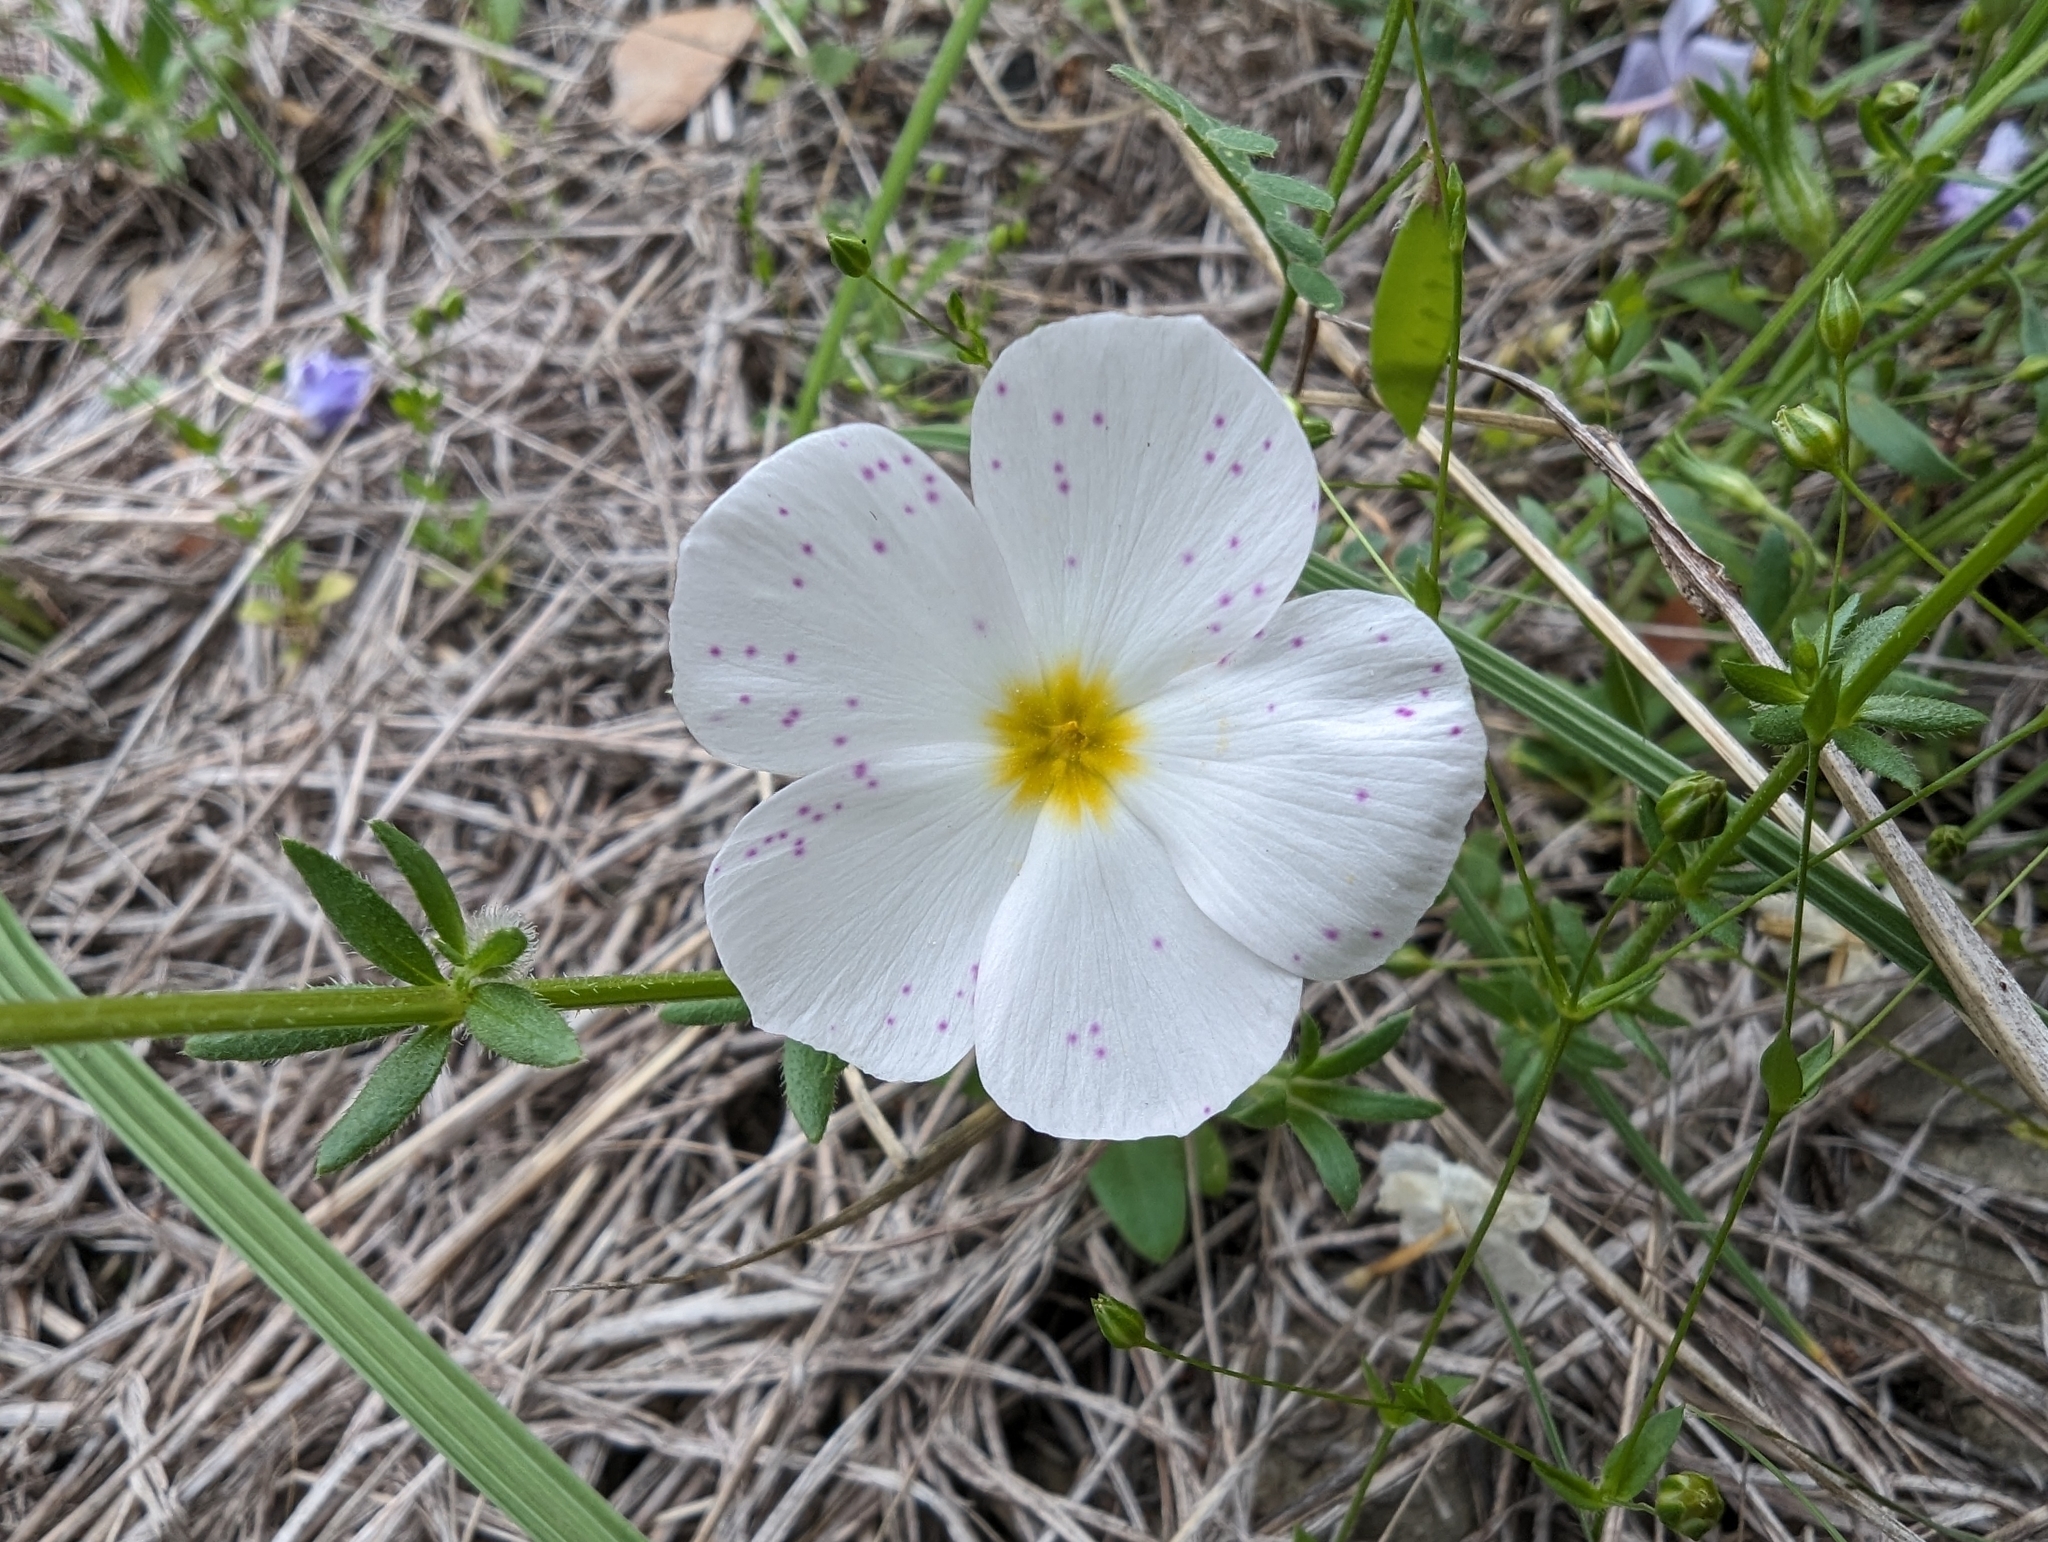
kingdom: Plantae
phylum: Tracheophyta
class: Magnoliopsida
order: Ericales
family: Polemoniaceae
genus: Phlox
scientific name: Phlox roemeriana
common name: Roemer's phlox
